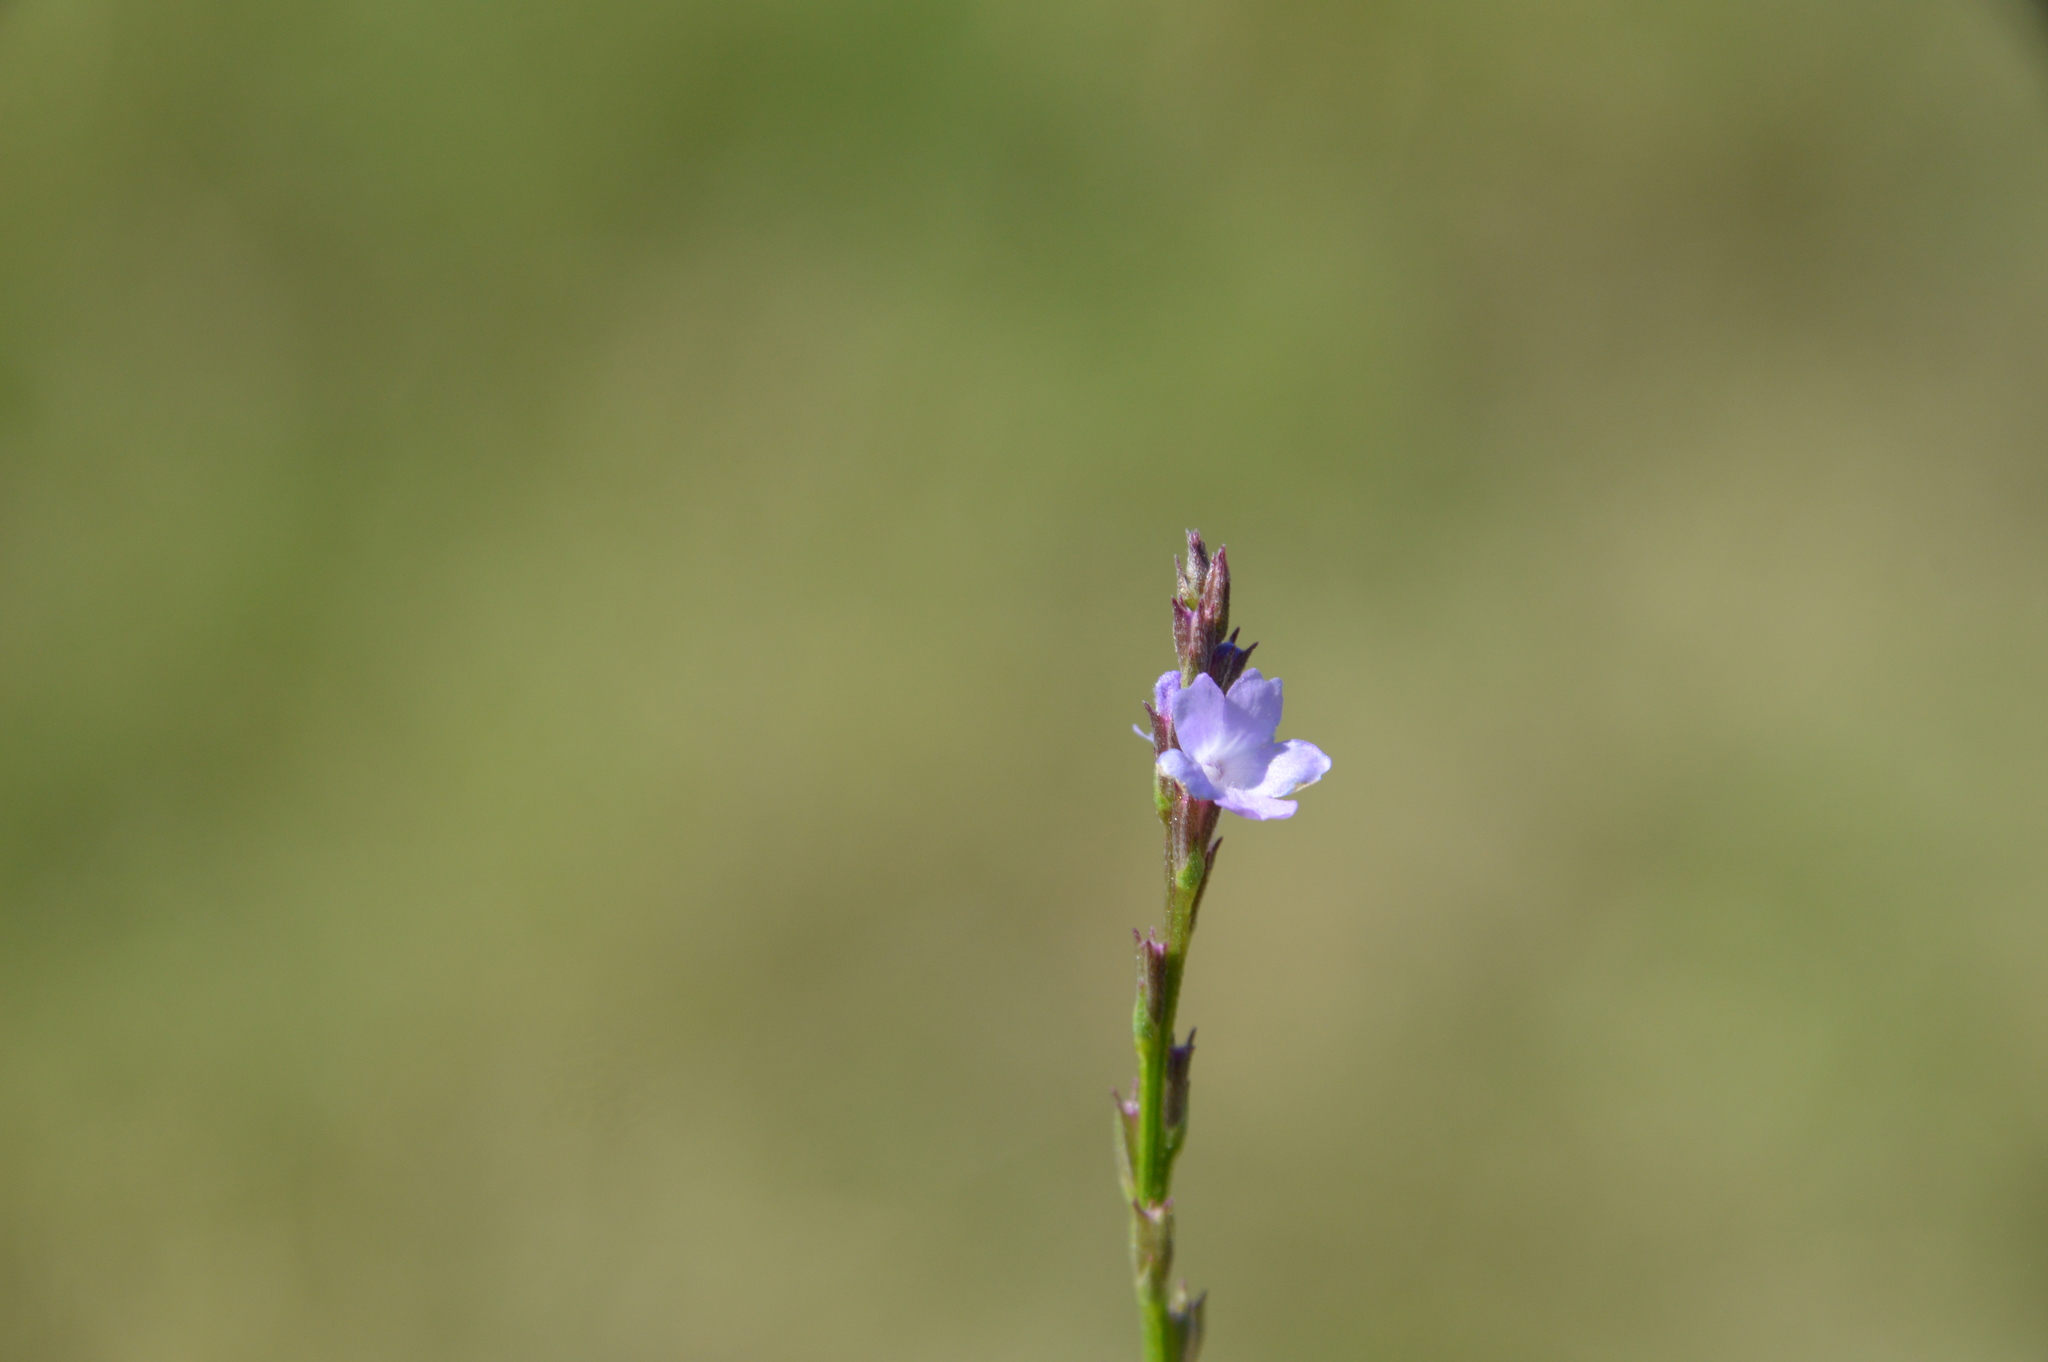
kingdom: Plantae
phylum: Tracheophyta
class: Magnoliopsida
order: Lamiales
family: Verbenaceae
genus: Verbena
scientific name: Verbena halei
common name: Texas vervain
